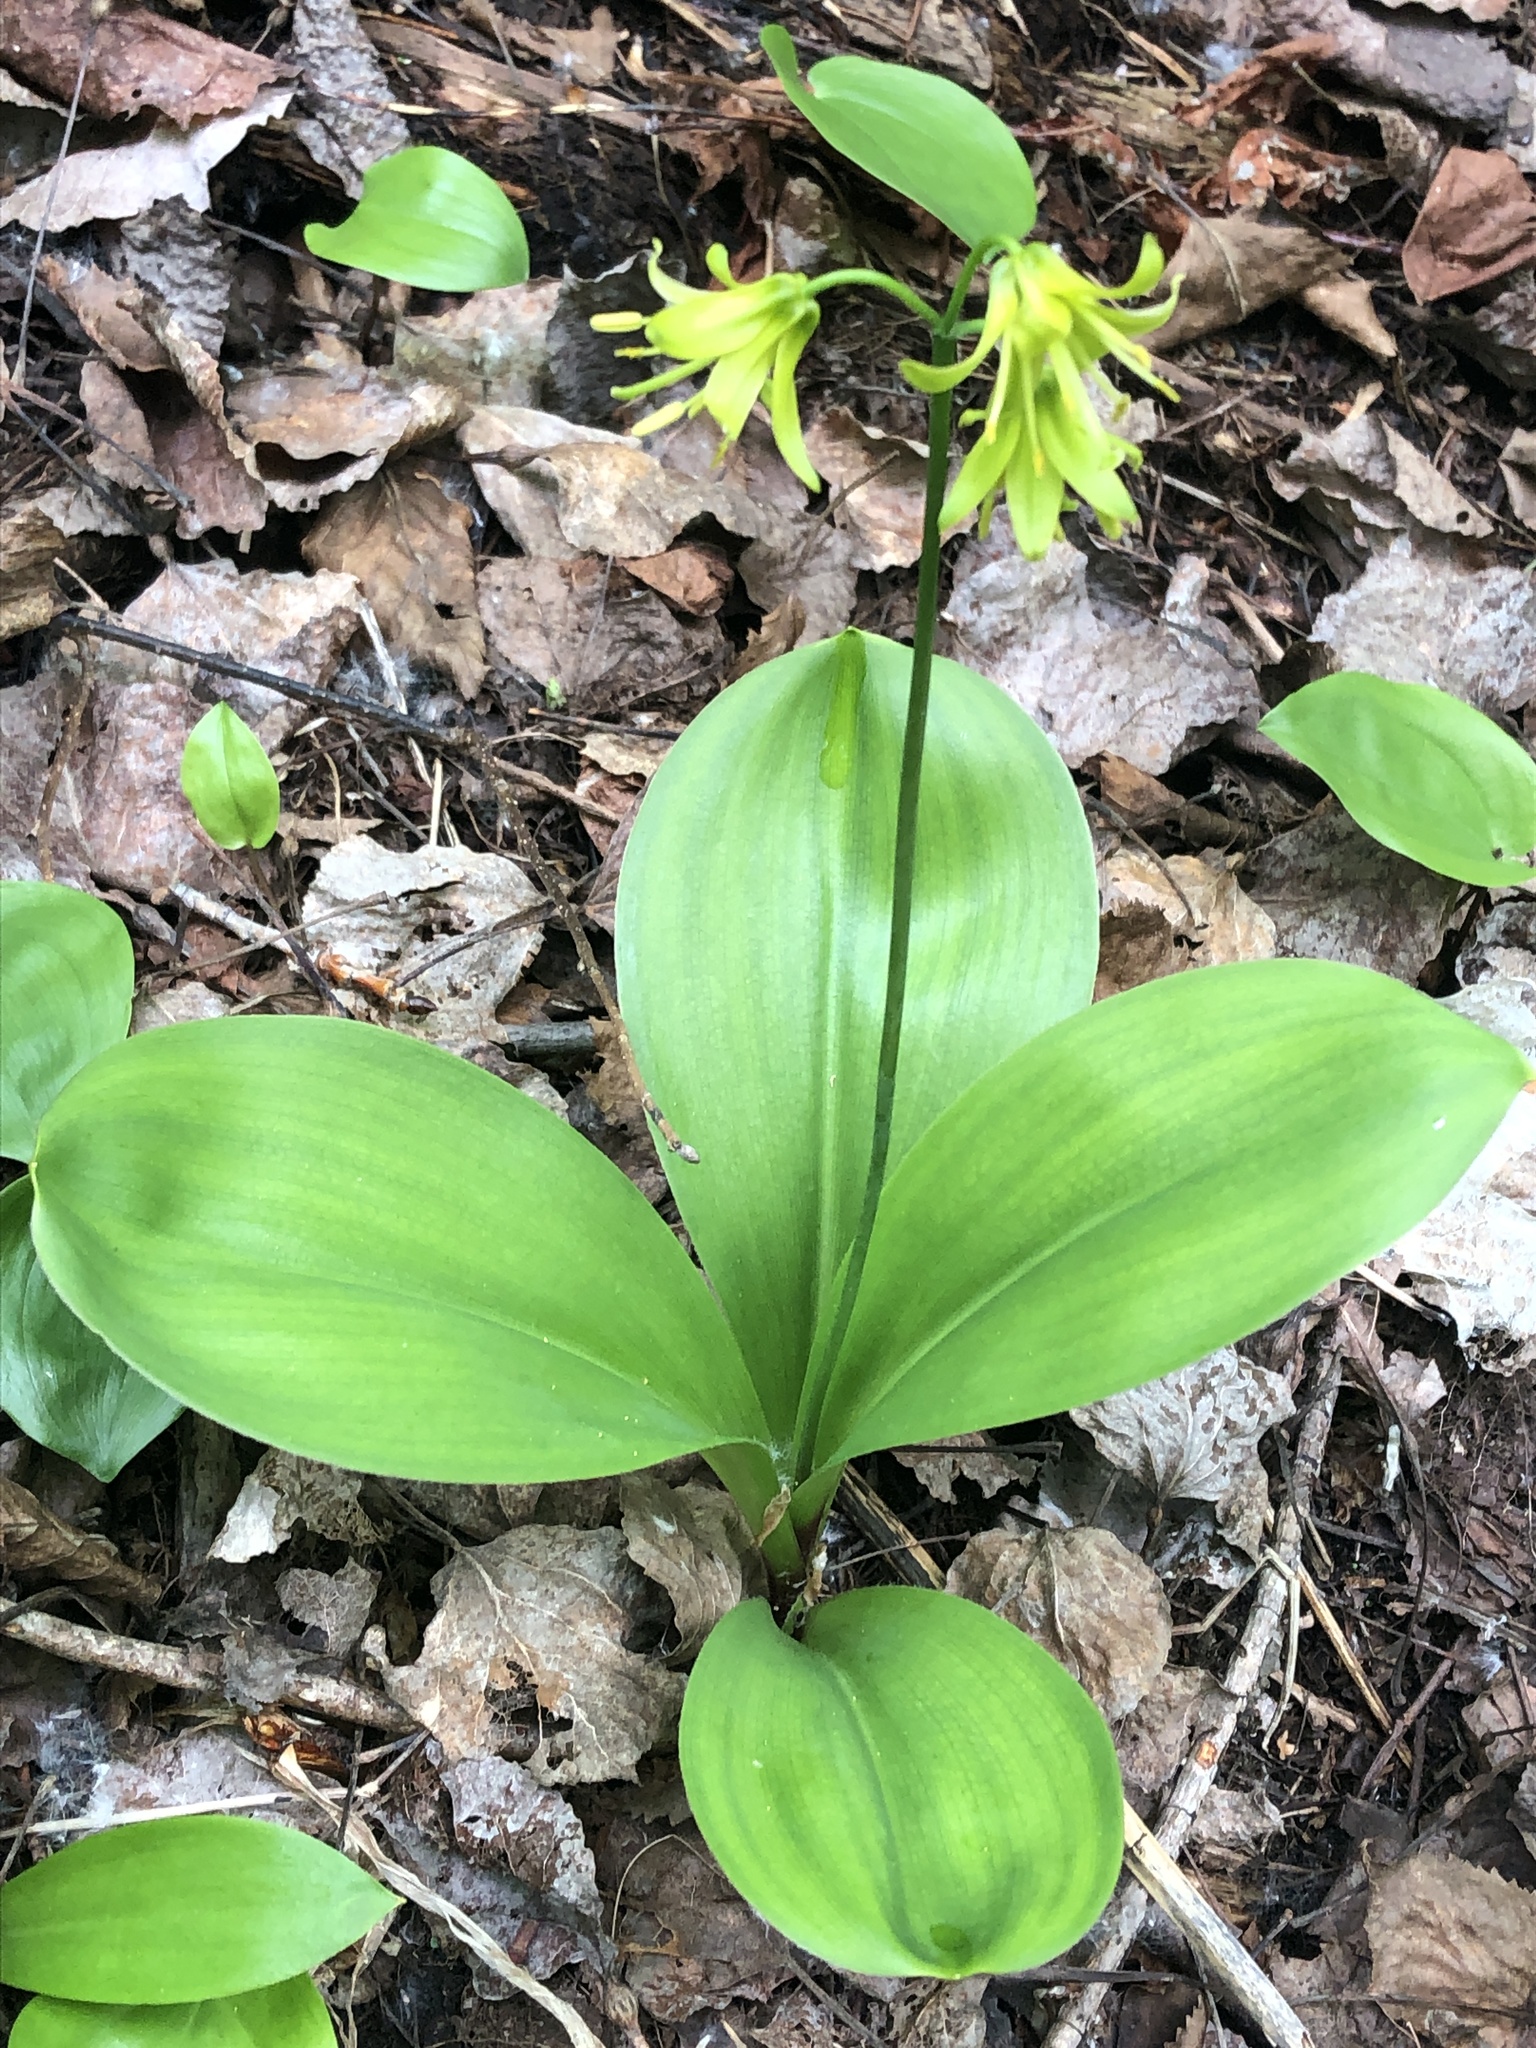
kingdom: Plantae
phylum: Tracheophyta
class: Liliopsida
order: Liliales
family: Liliaceae
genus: Clintonia
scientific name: Clintonia borealis
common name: Yellow clintonia
